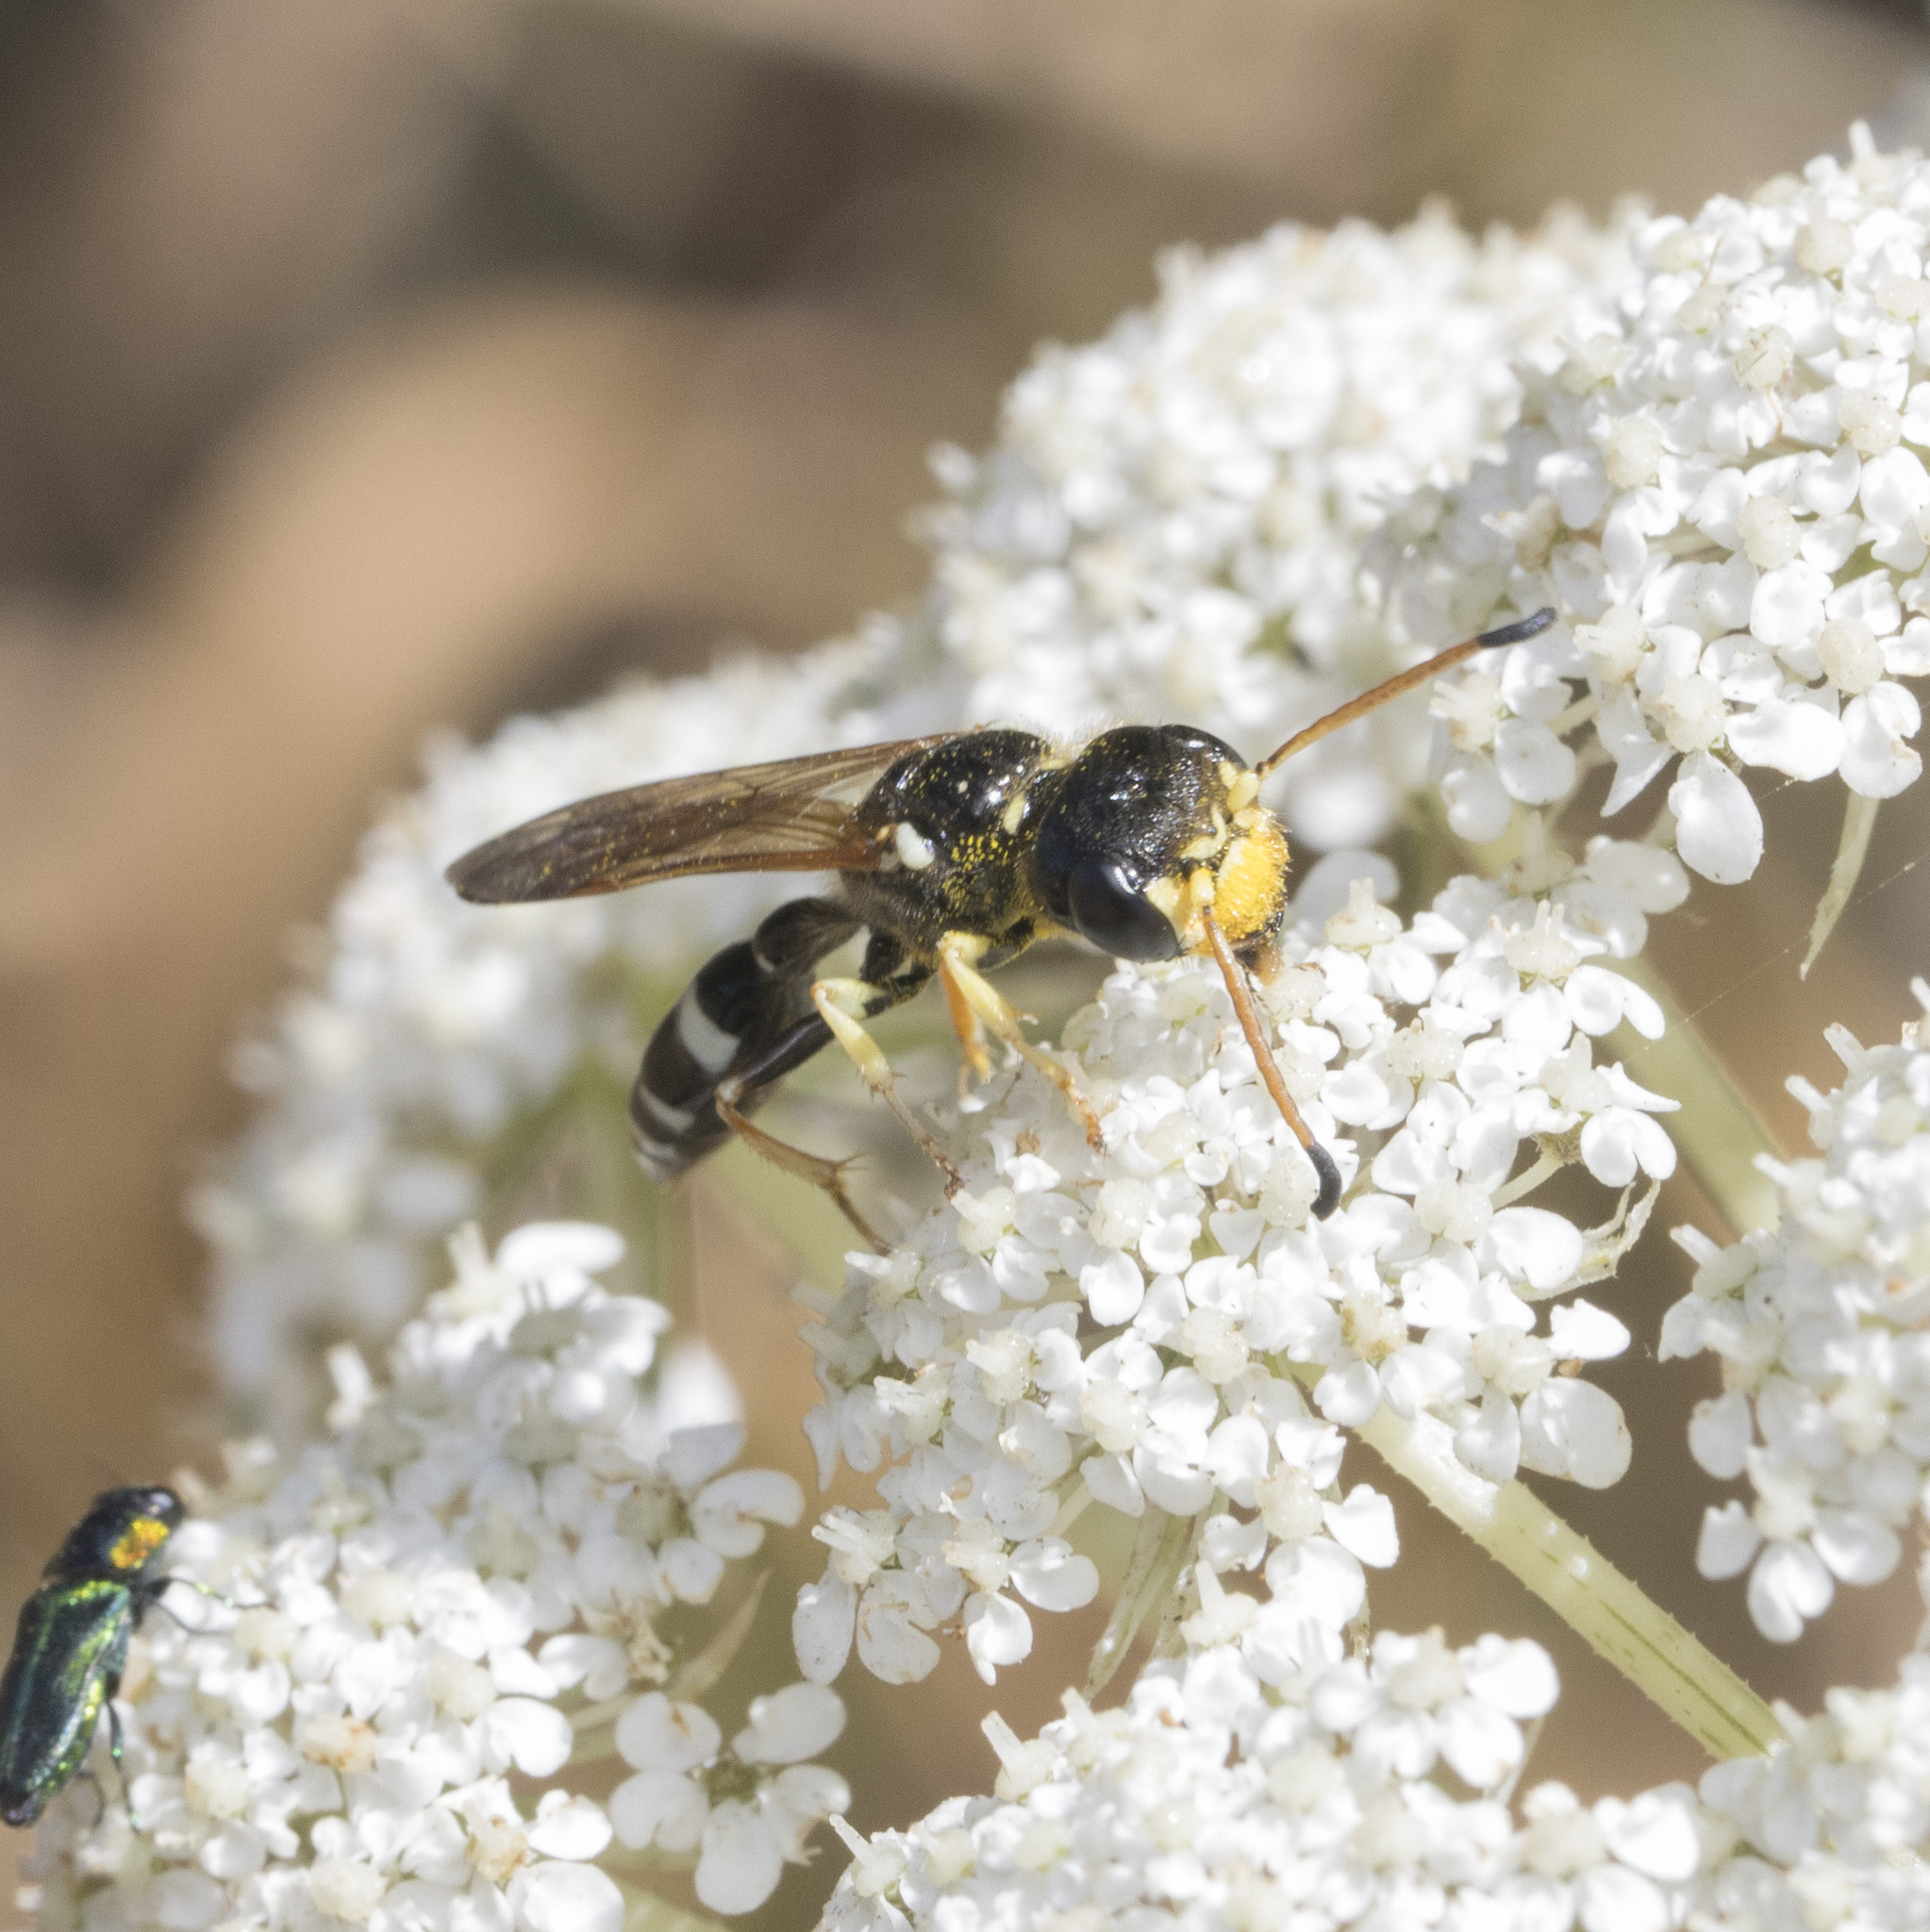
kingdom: Animalia
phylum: Arthropoda
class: Insecta
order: Hymenoptera
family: Crabronidae
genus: Trachypus
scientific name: Trachypus denticollis
